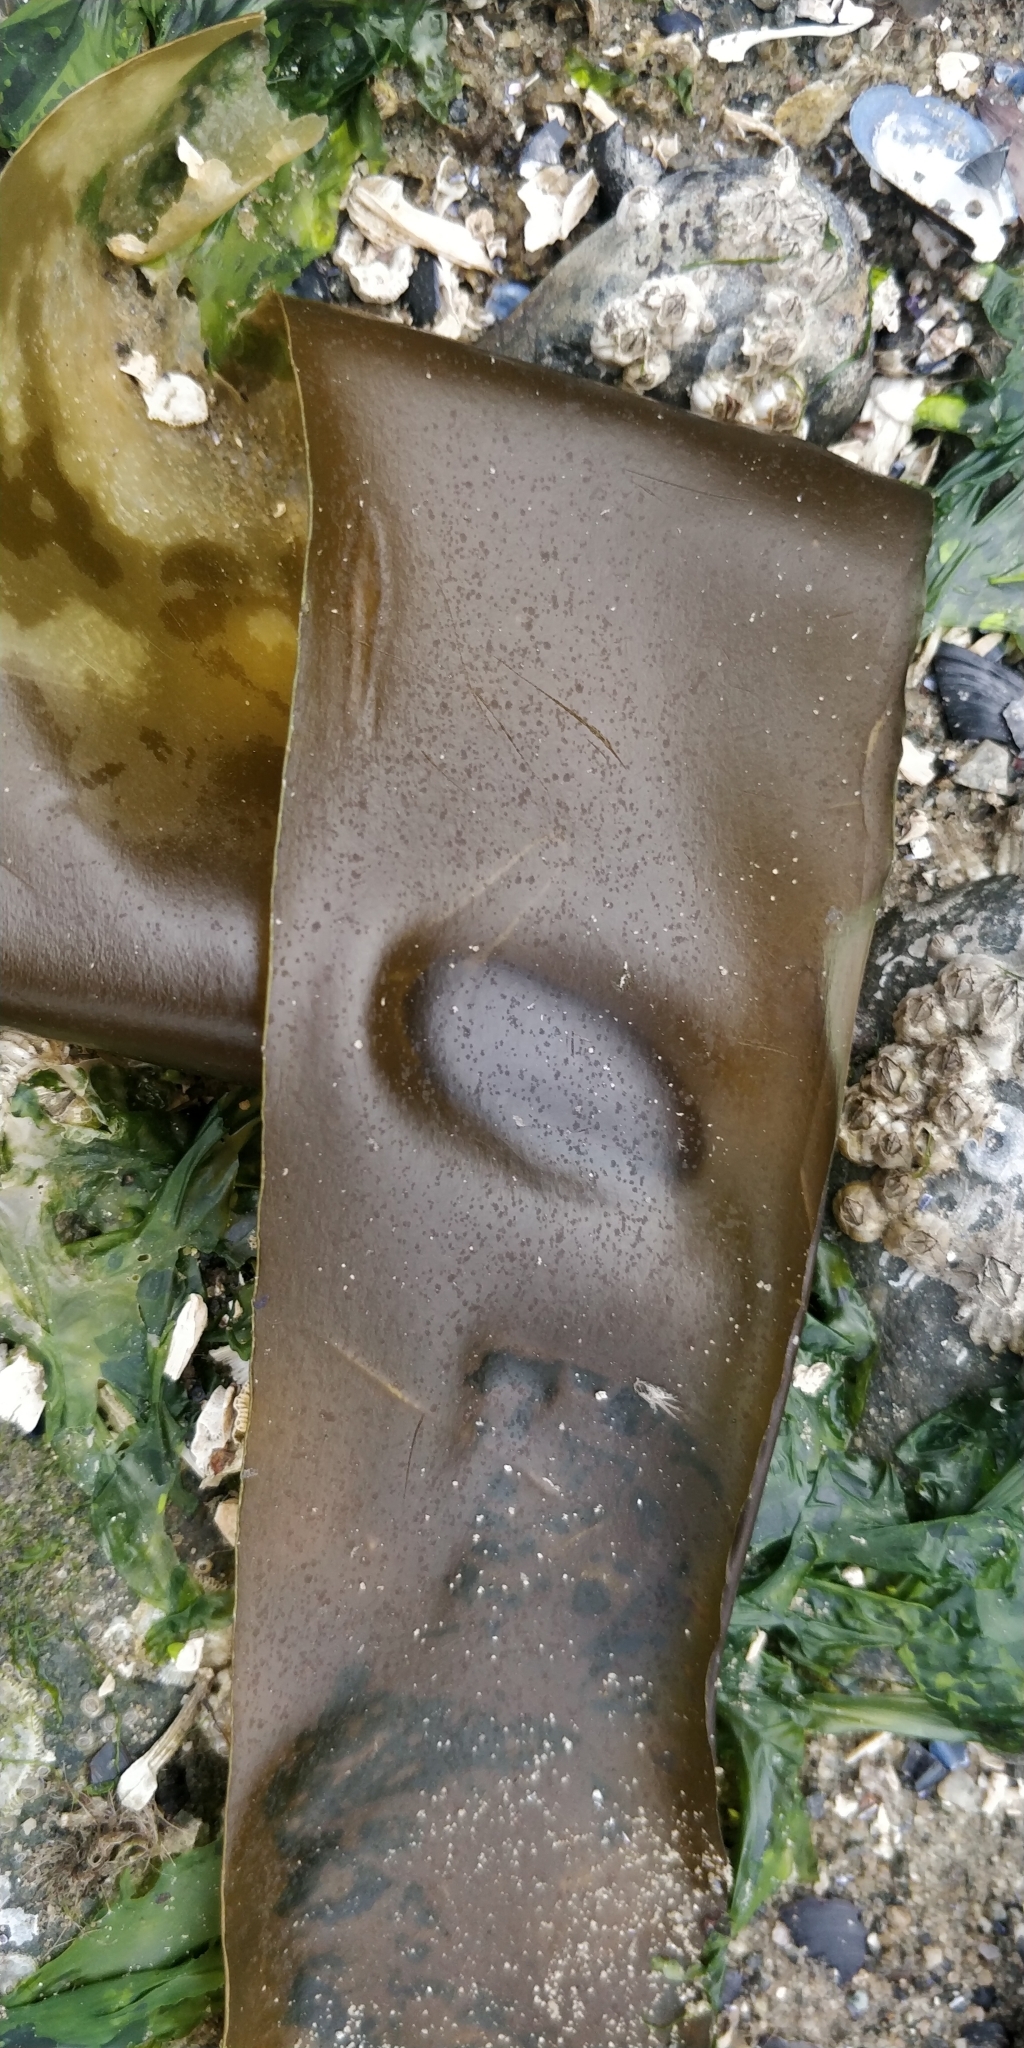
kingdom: Chromista
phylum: Ochrophyta
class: Phaeophyceae
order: Laminariales
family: Laminariaceae
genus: Nereocystis
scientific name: Nereocystis luetkeana
